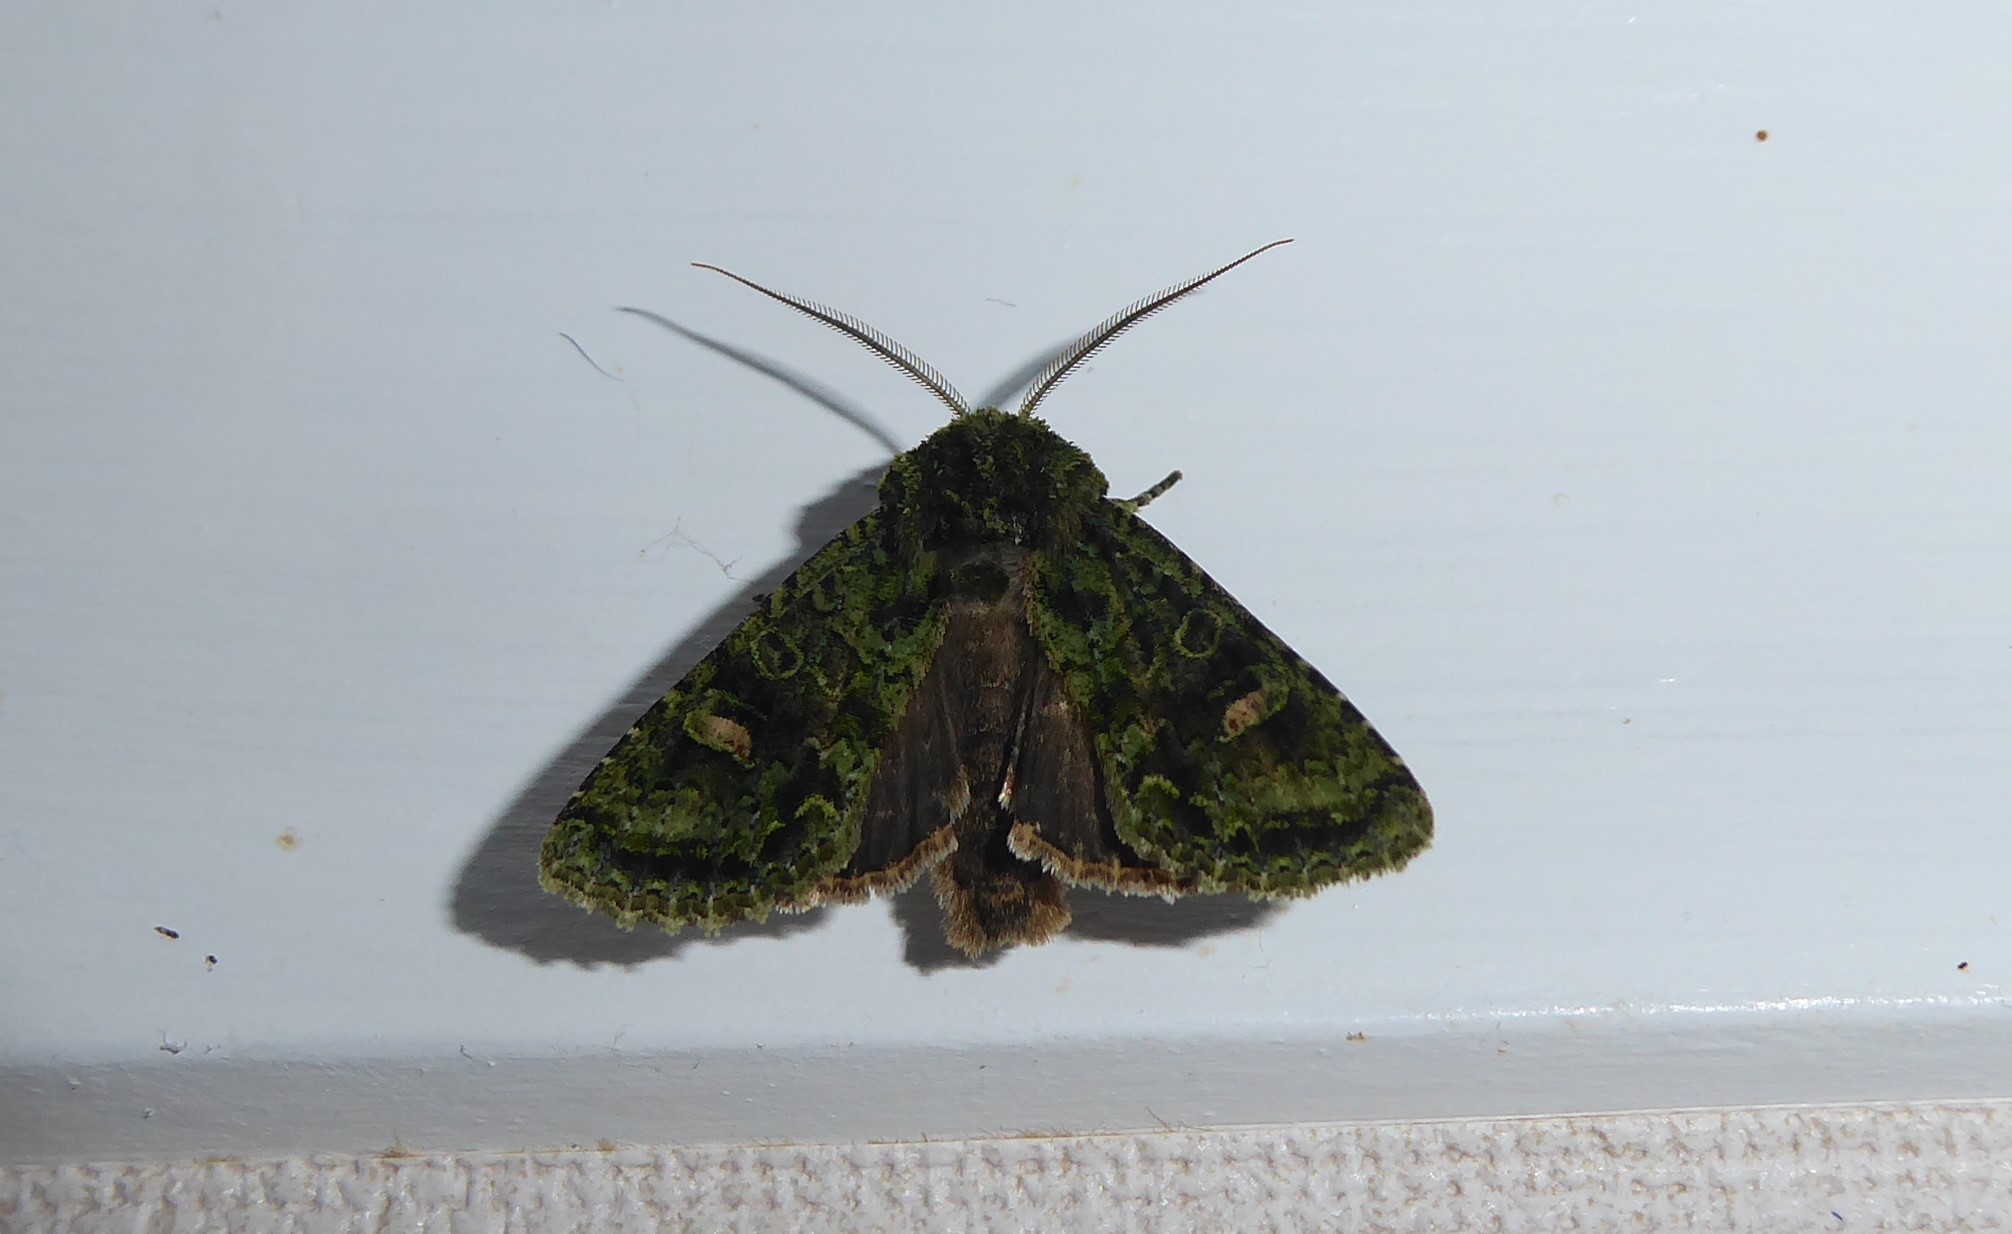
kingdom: Animalia
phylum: Arthropoda
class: Insecta
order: Lepidoptera
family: Noctuidae
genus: Ichneutica
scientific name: Ichneutica
